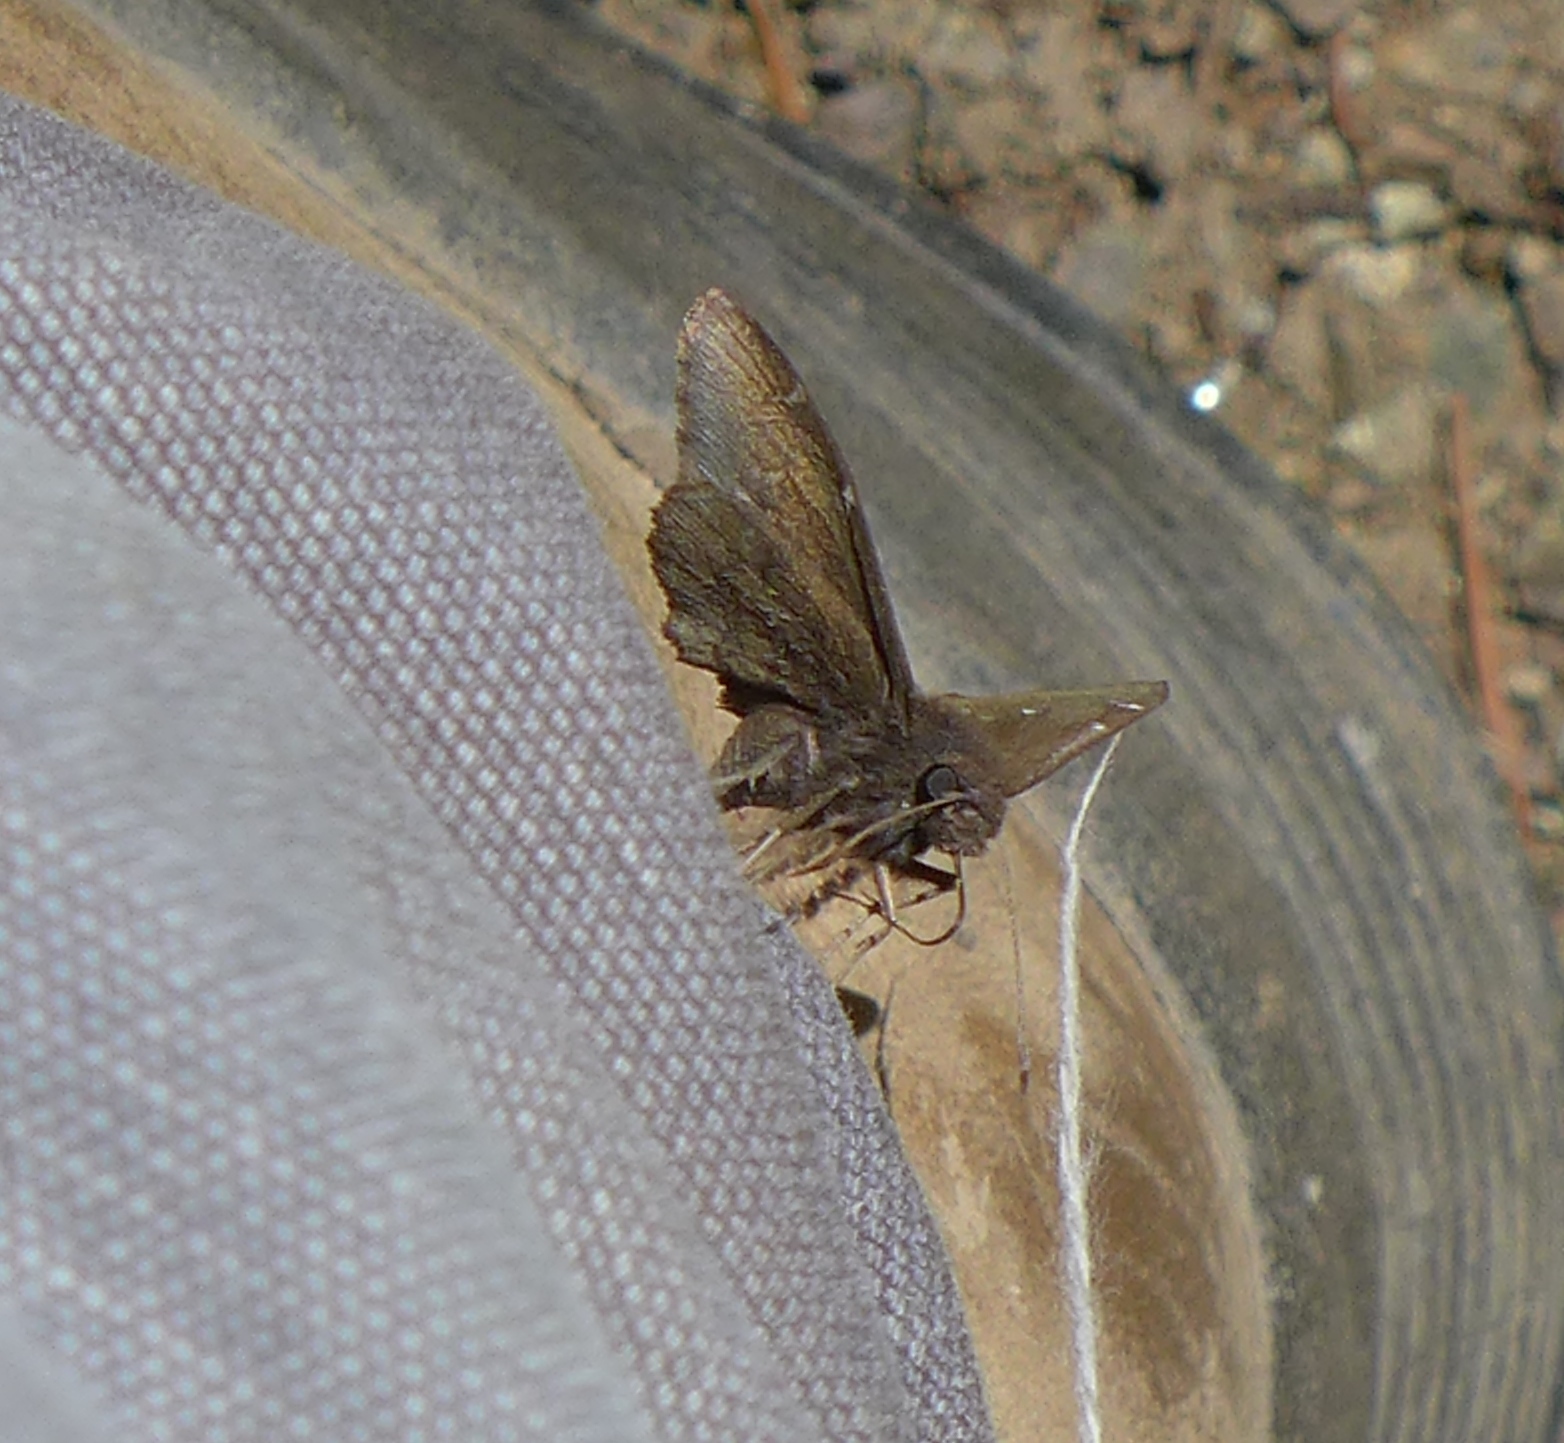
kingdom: Animalia
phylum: Arthropoda
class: Insecta
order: Lepidoptera
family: Hesperiidae
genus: Thorybes
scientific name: Thorybes pylades
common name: Northern cloudywing
